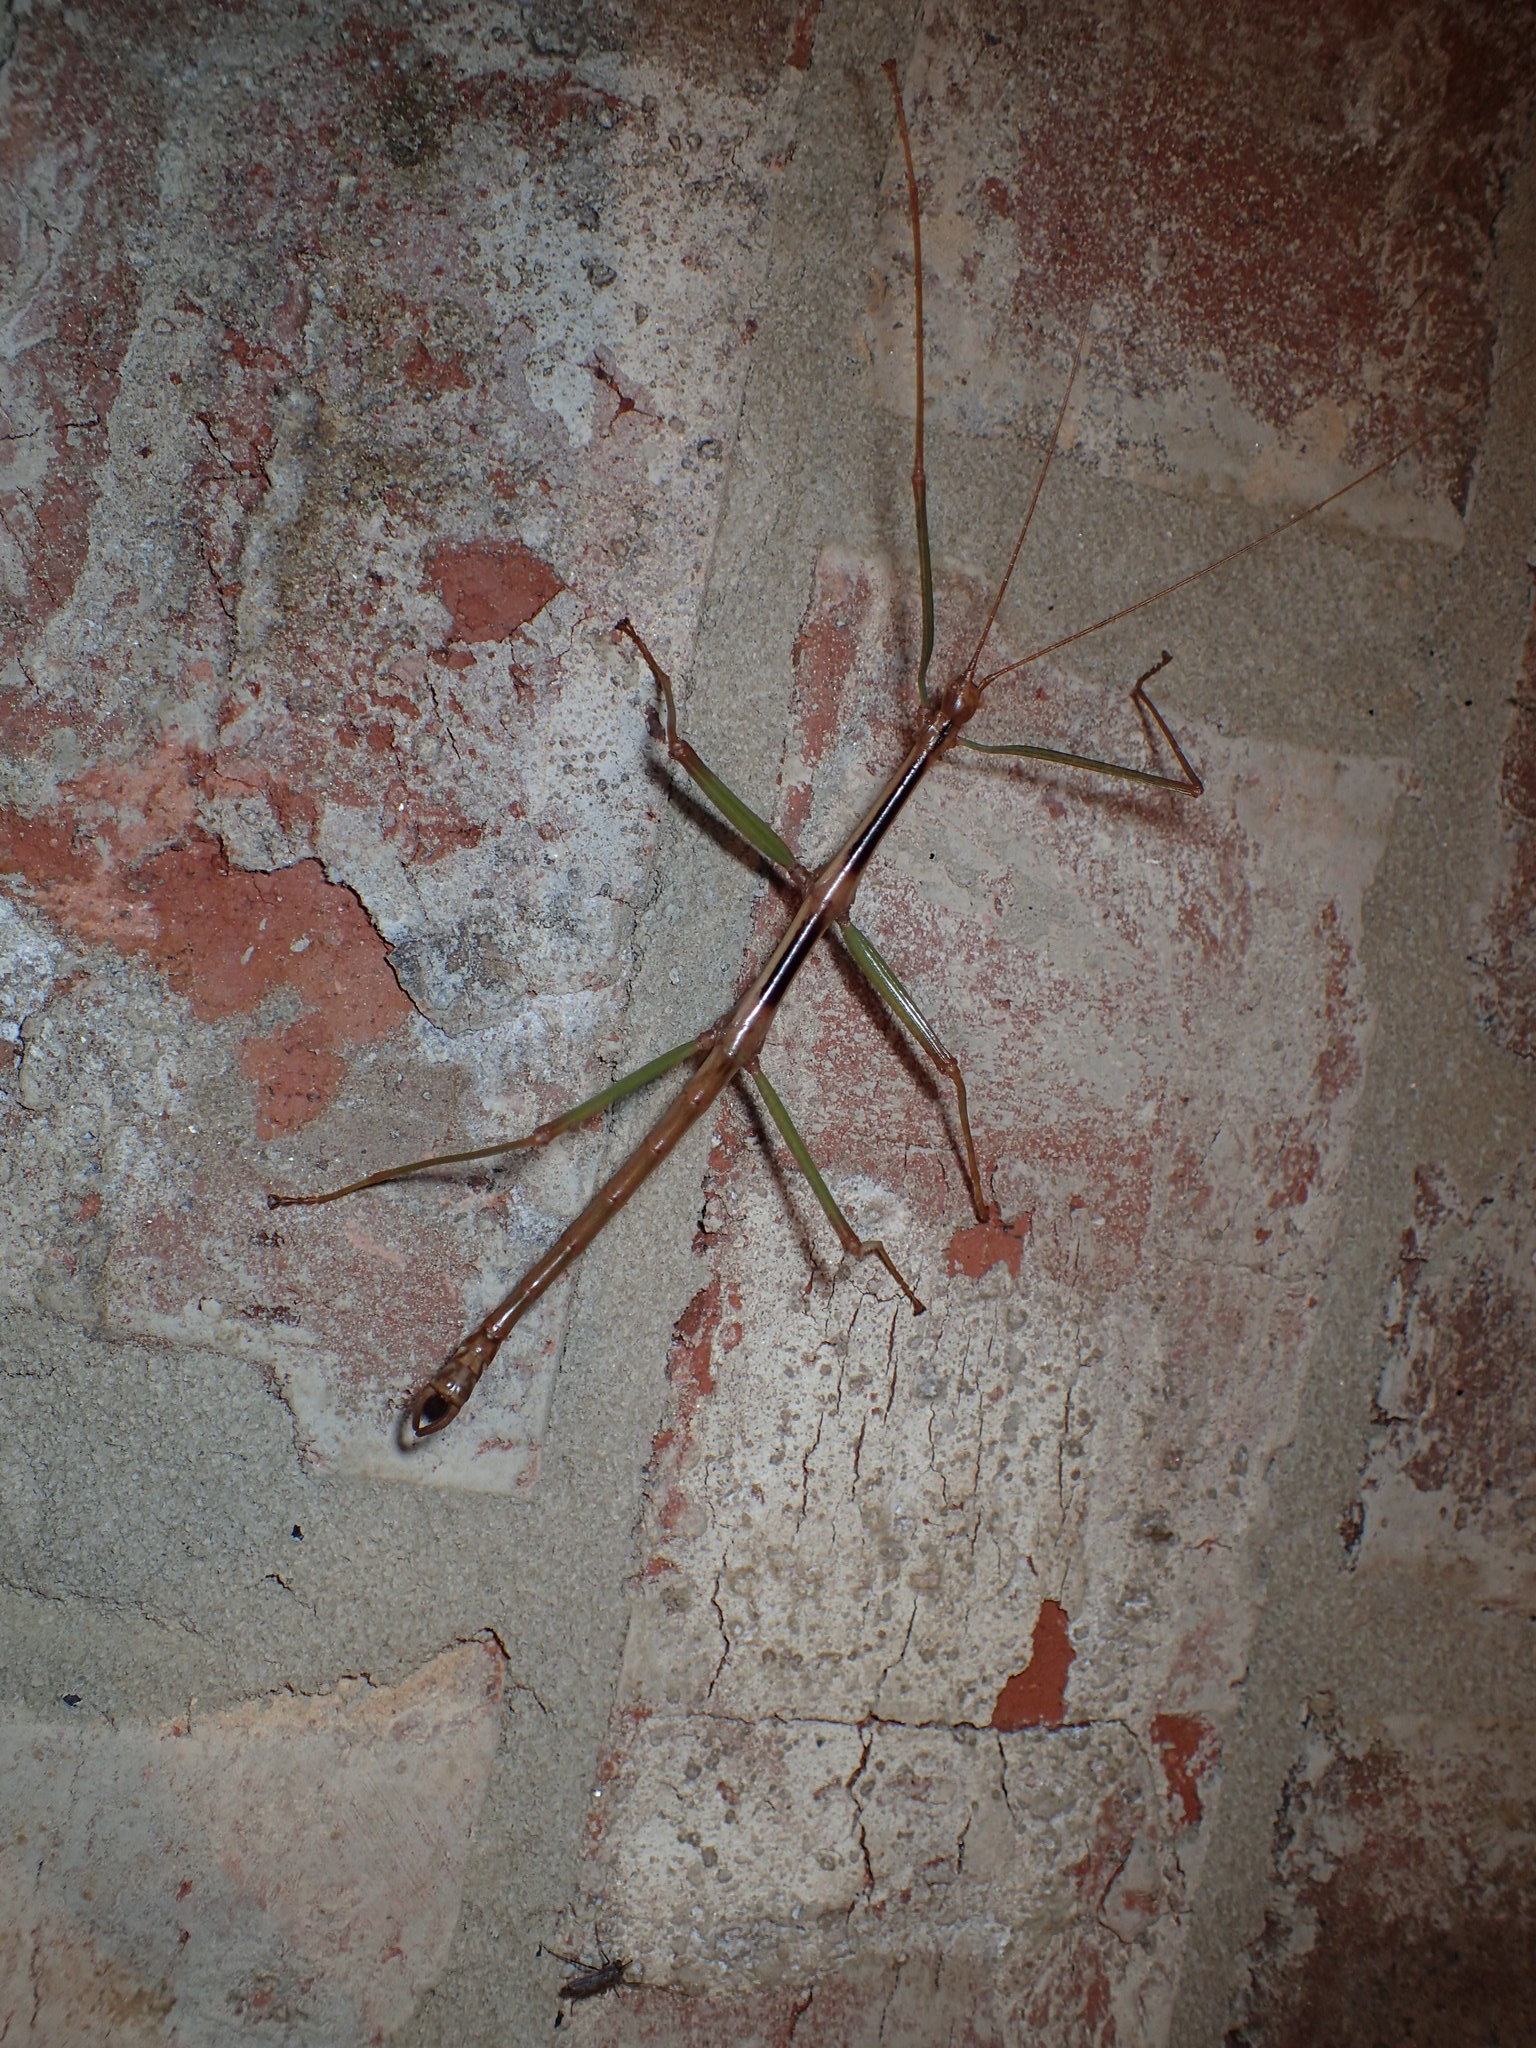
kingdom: Animalia
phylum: Arthropoda
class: Insecta
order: Phasmida
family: Diapheromeridae
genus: Diapheromera
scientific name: Diapheromera carolina
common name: Carolina walkingstick
